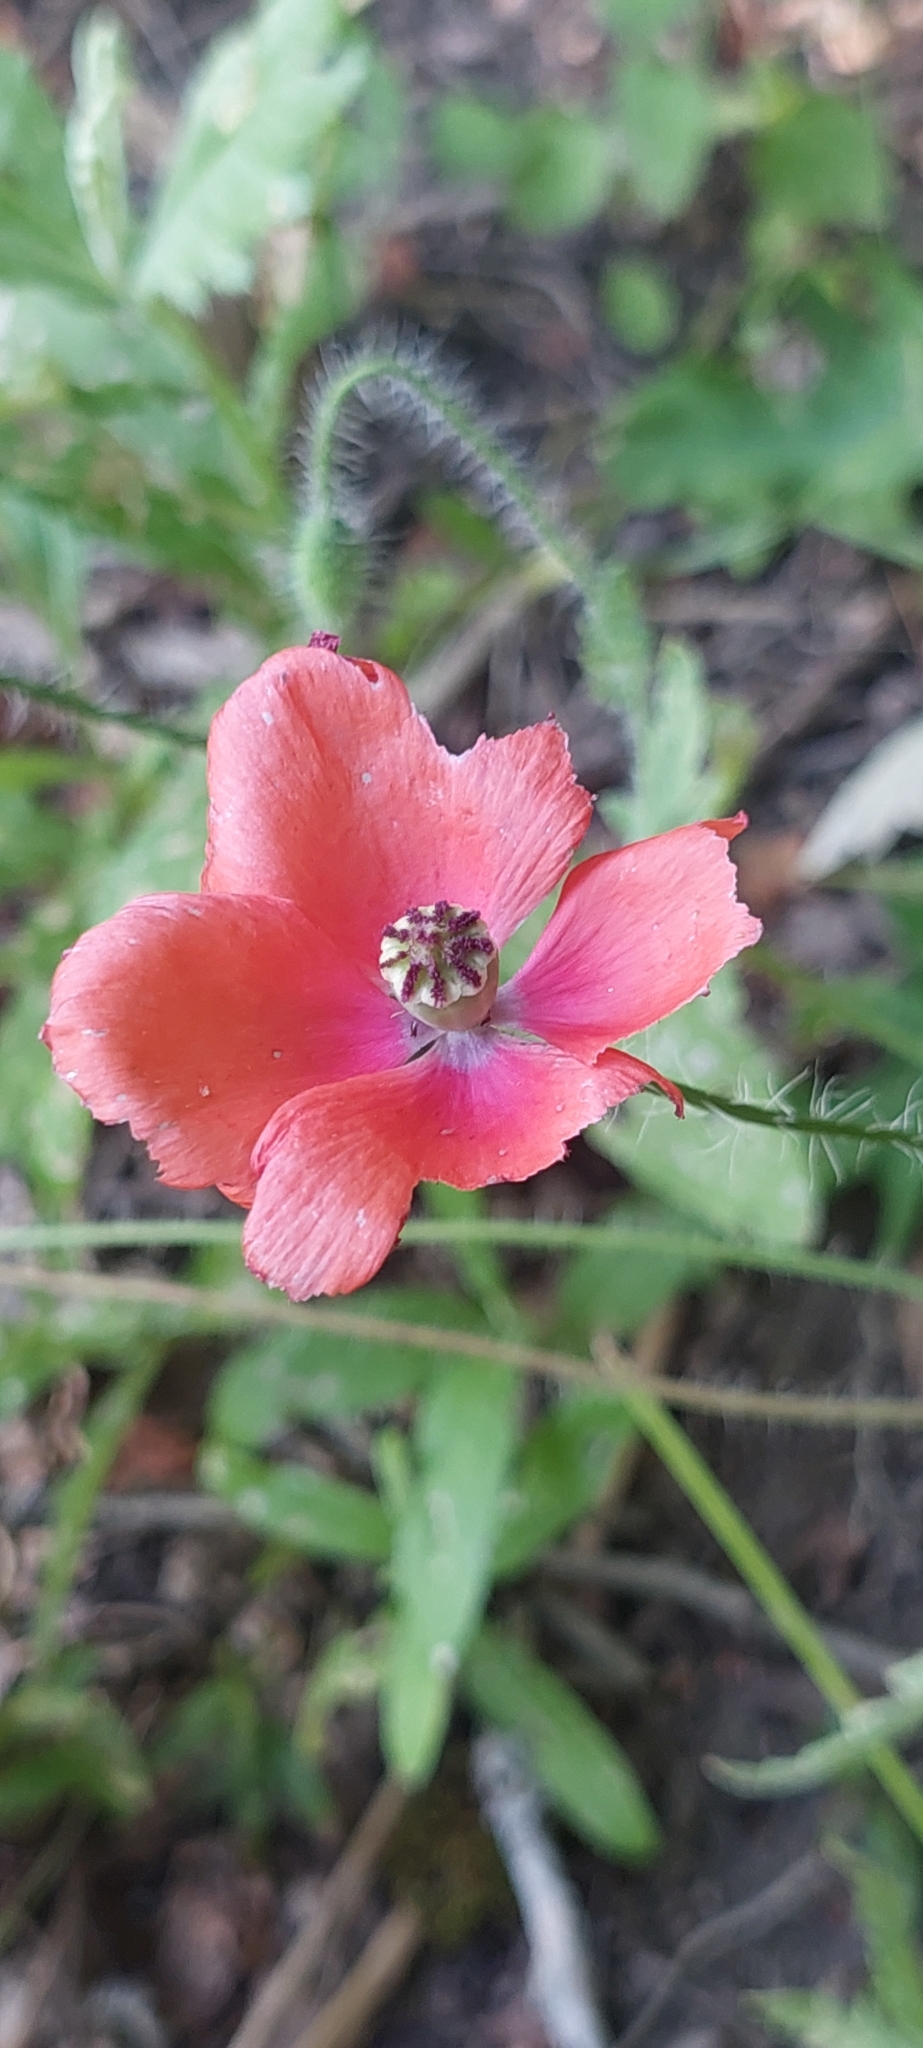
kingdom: Plantae
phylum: Tracheophyta
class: Magnoliopsida
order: Ranunculales
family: Papaveraceae
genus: Papaver
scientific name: Papaver rhoeas
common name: Corn poppy
